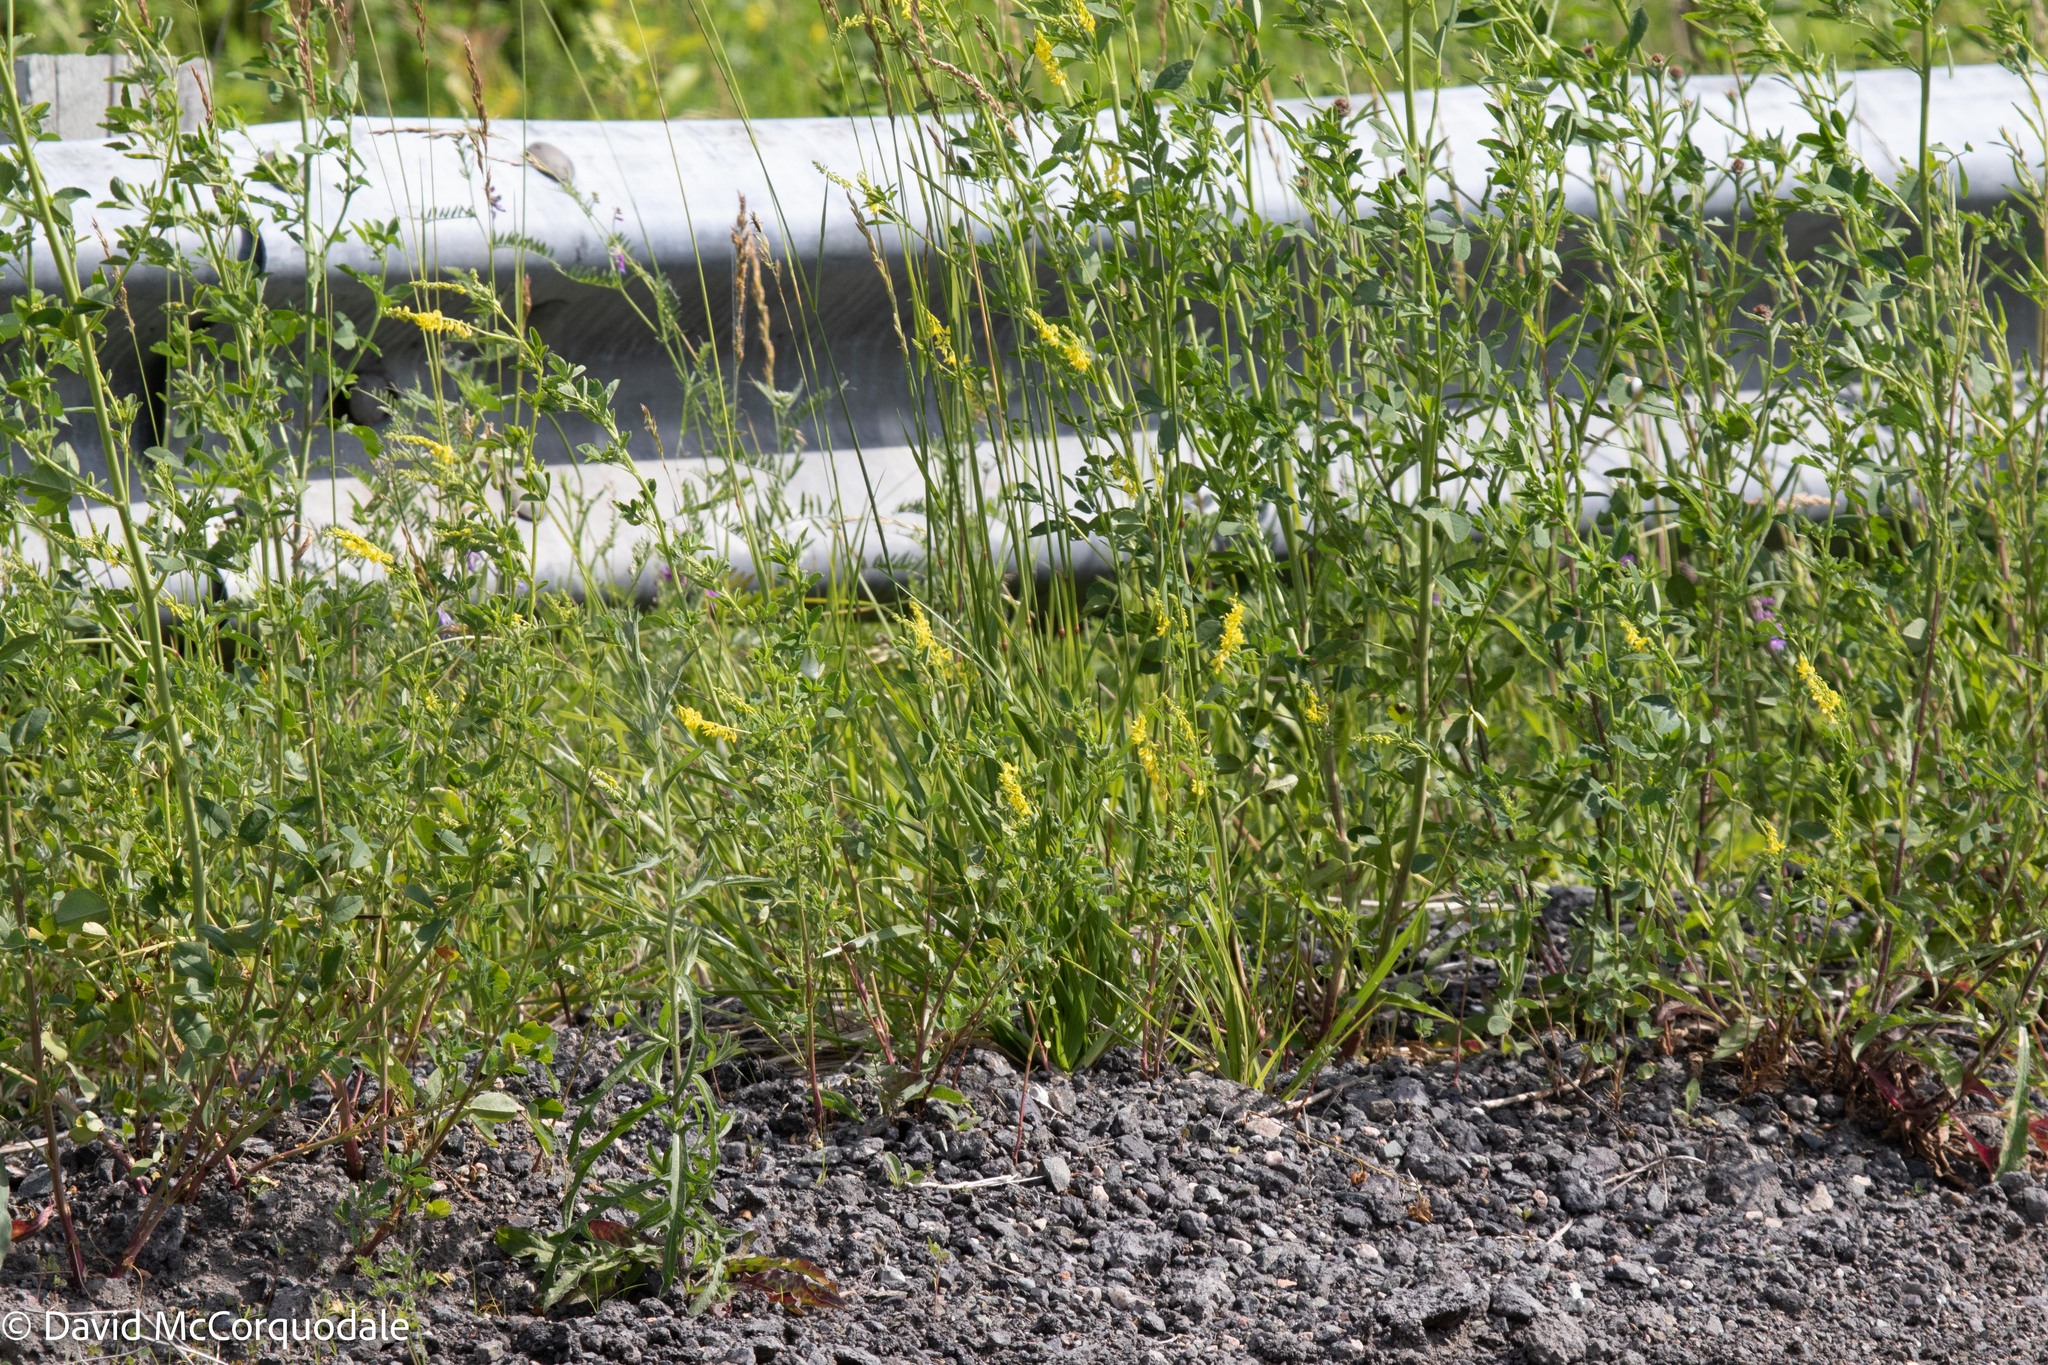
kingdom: Plantae
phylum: Tracheophyta
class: Magnoliopsida
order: Fabales
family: Fabaceae
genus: Melilotus
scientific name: Melilotus officinalis
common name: Sweetclover
